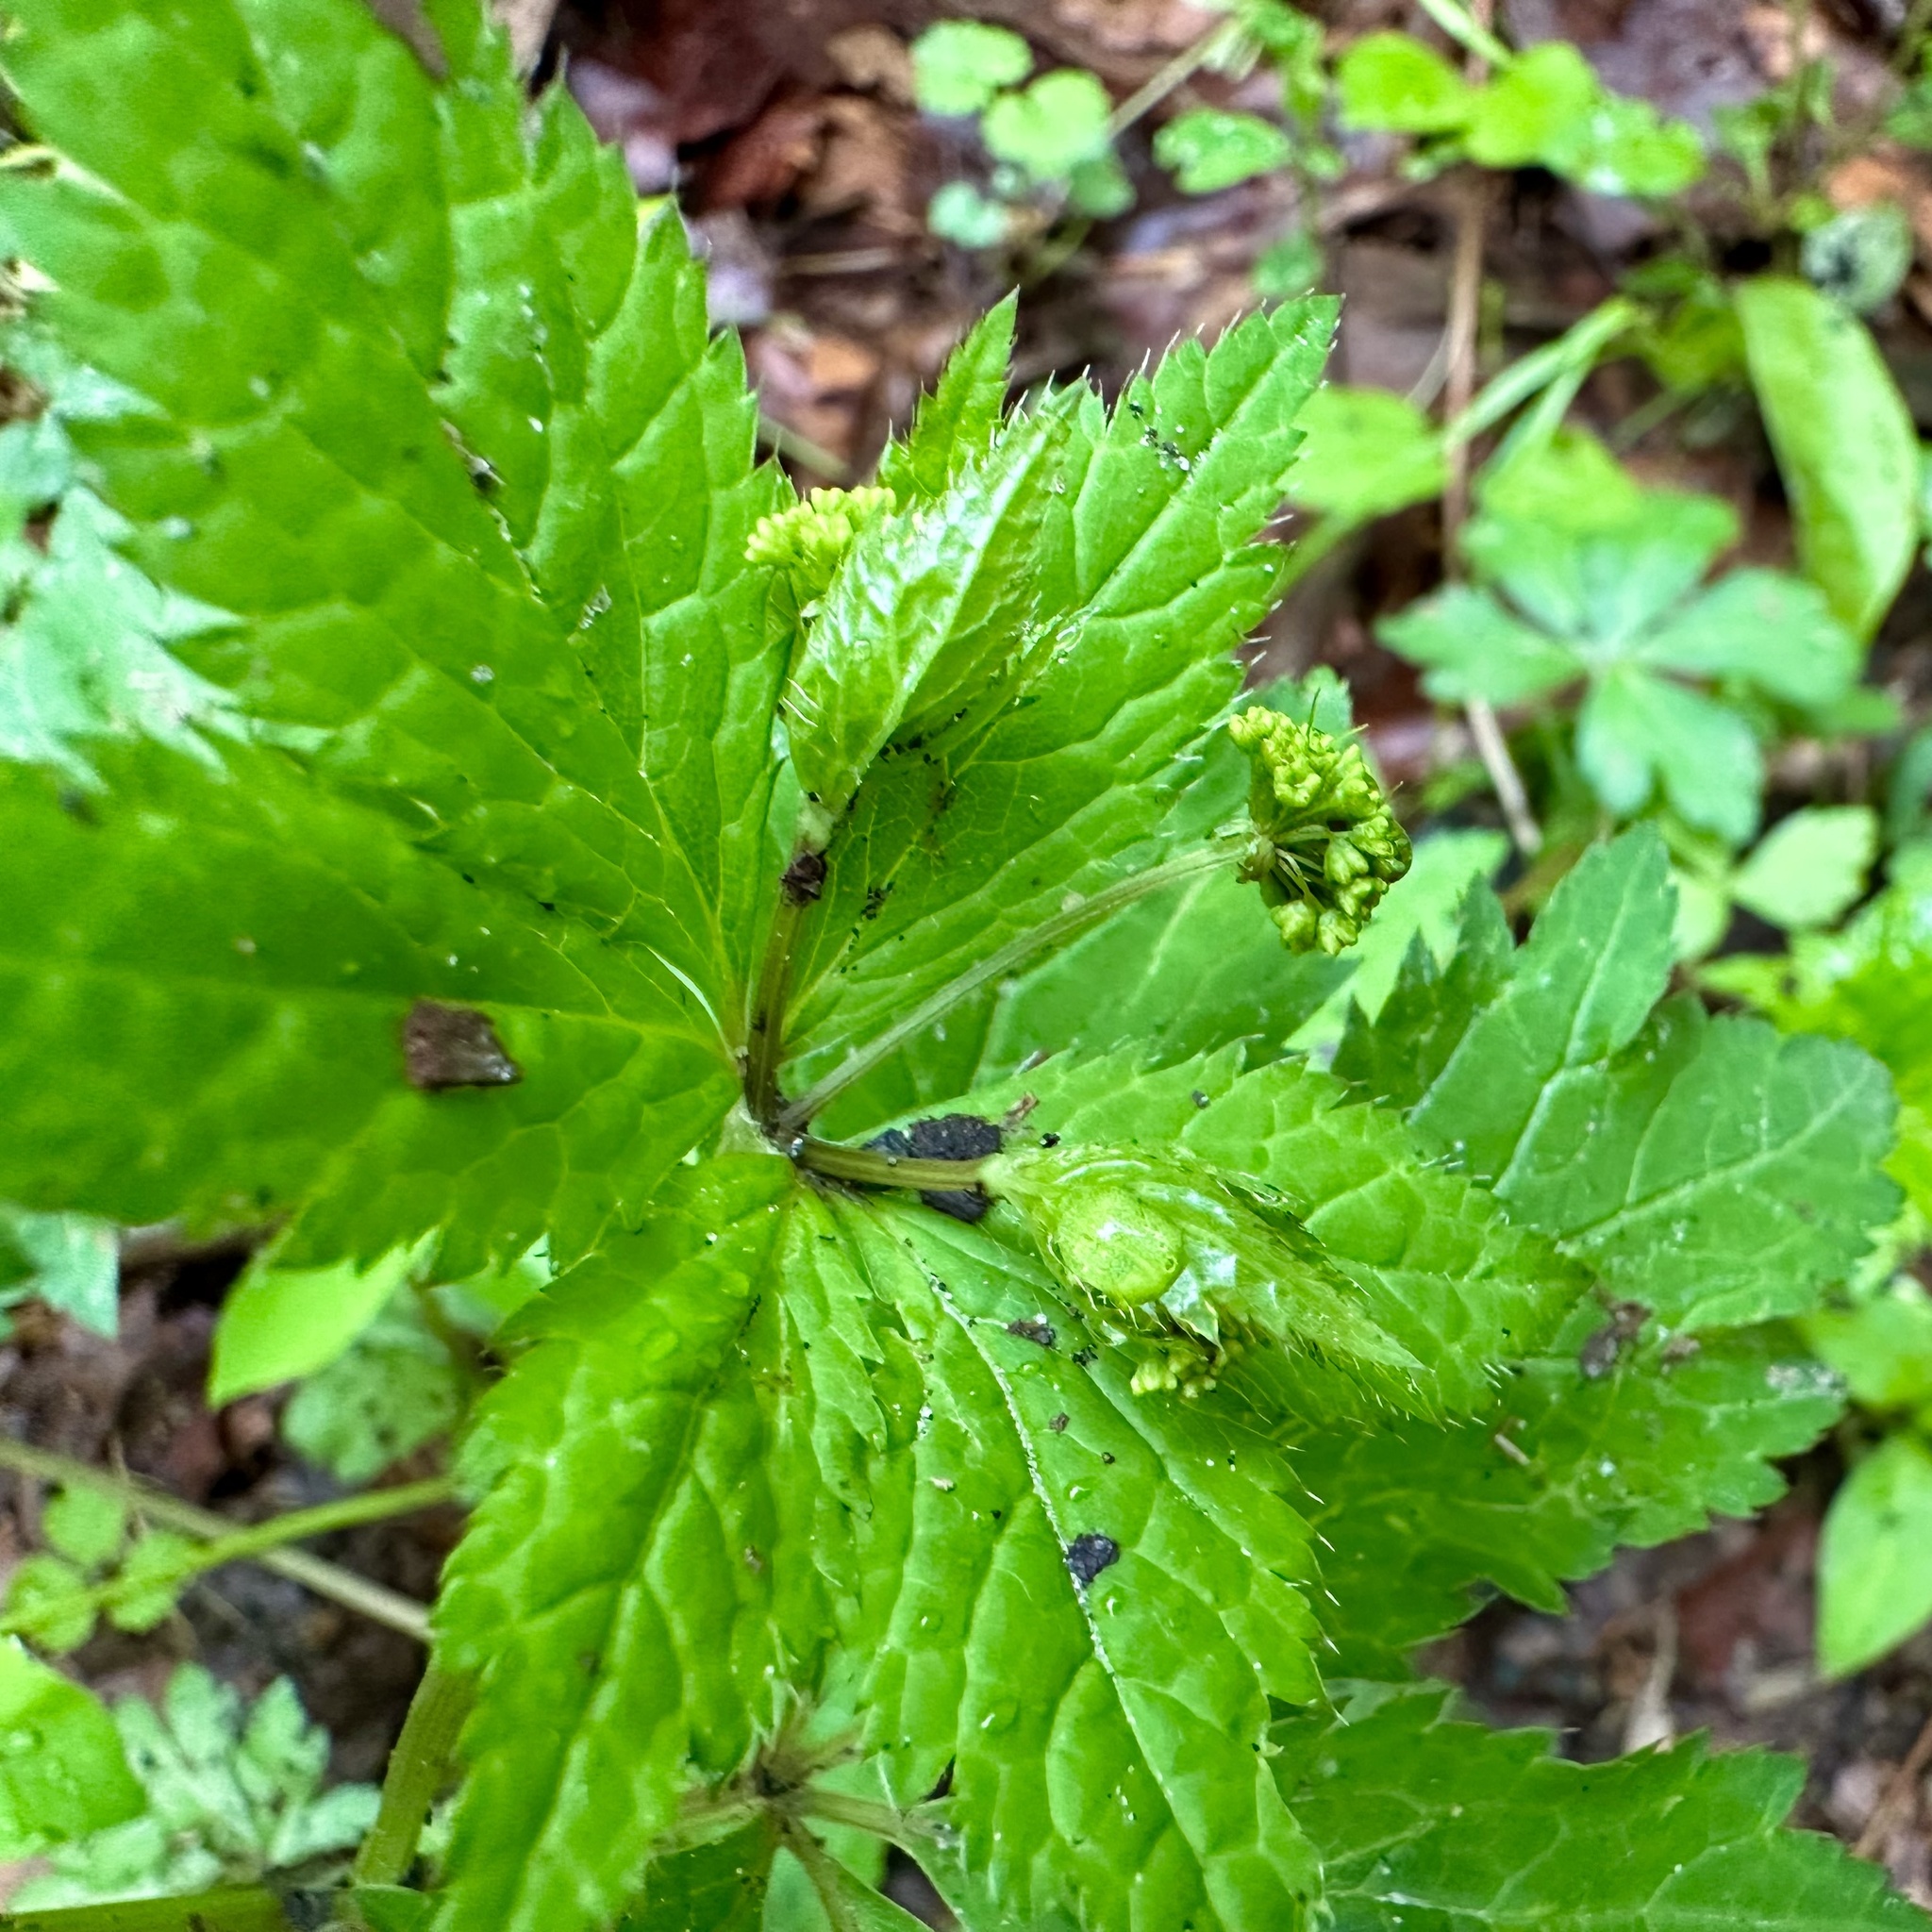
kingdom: Plantae
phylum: Tracheophyta
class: Magnoliopsida
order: Apiales
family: Apiaceae
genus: Sanicula
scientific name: Sanicula odorata
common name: Cluster sanicle
